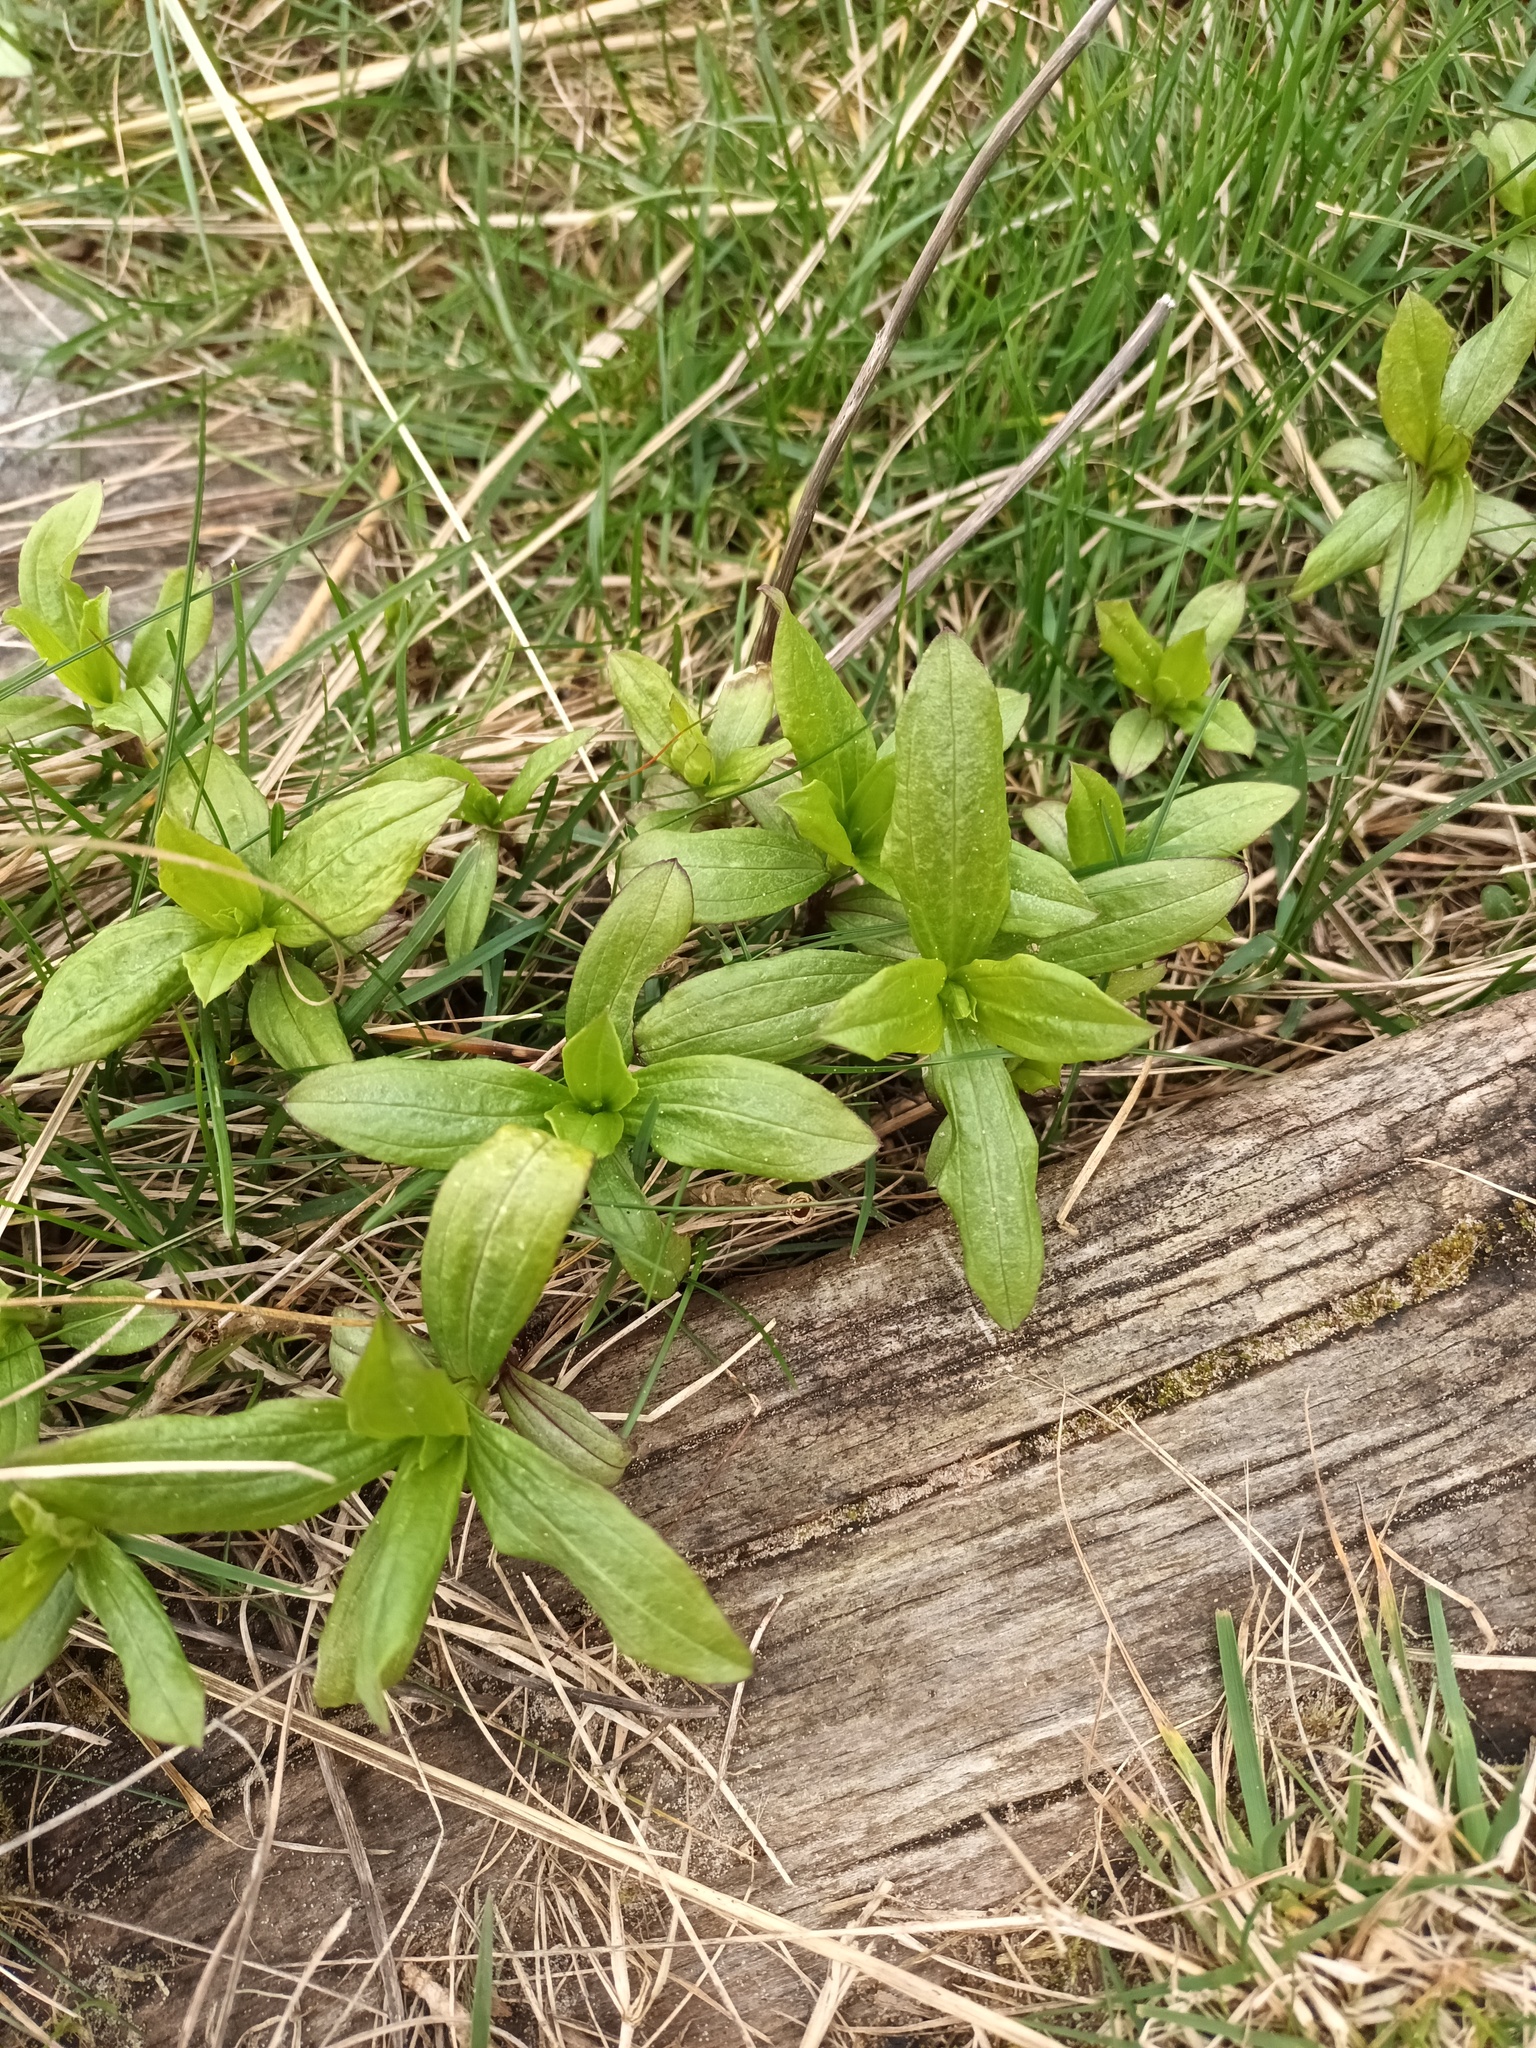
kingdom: Plantae
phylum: Tracheophyta
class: Magnoliopsida
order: Caryophyllales
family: Caryophyllaceae
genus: Saponaria
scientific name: Saponaria officinalis
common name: Soapwort
